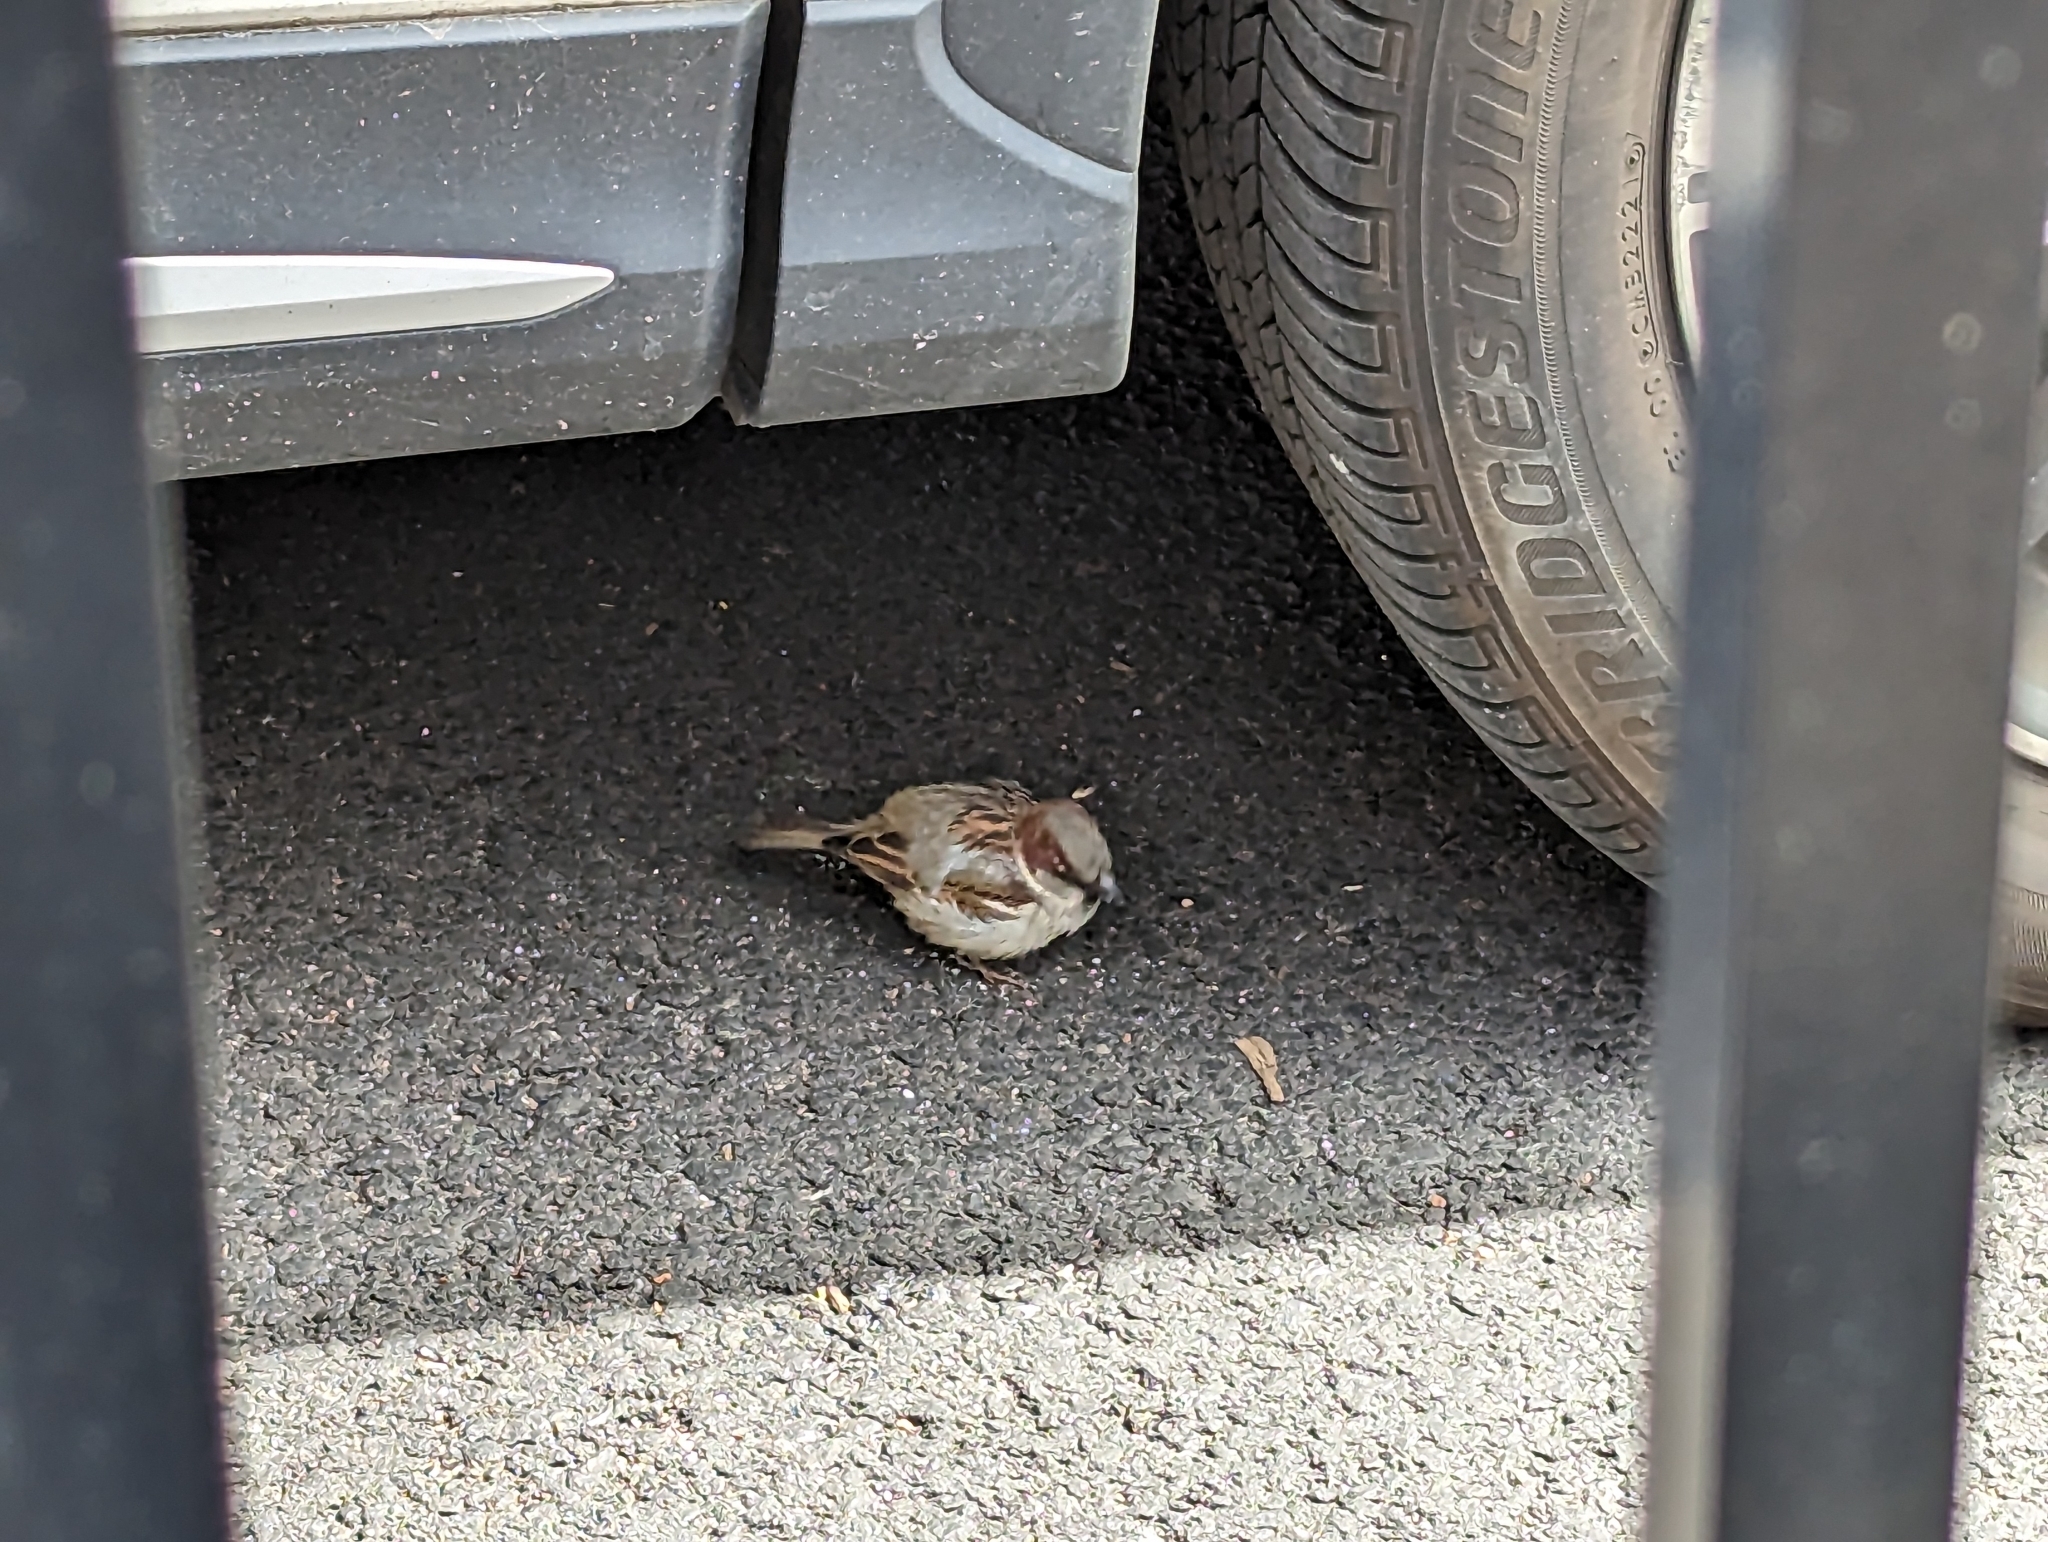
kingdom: Animalia
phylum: Chordata
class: Aves
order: Passeriformes
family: Passeridae
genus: Passer
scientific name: Passer domesticus
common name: House sparrow
